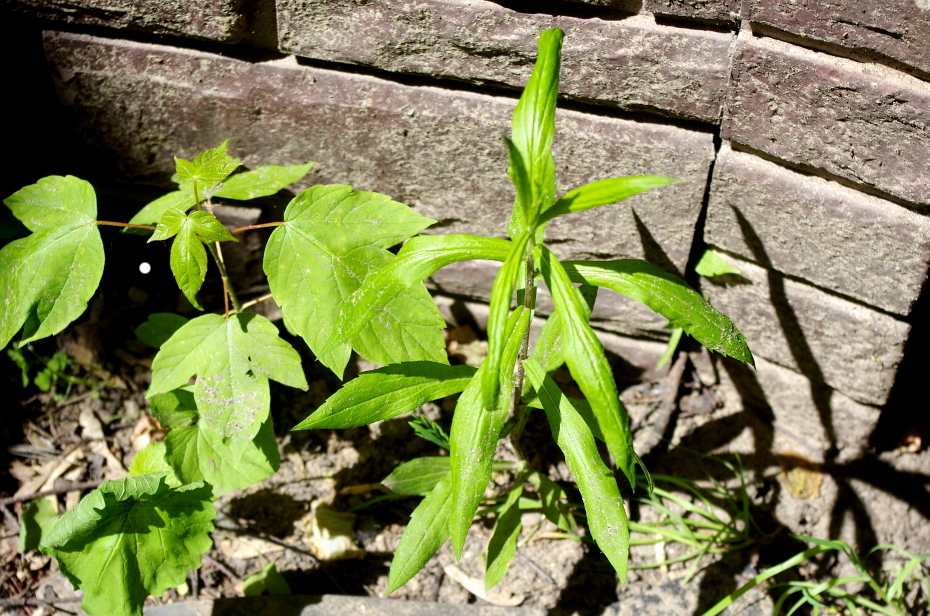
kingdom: Plantae
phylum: Tracheophyta
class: Magnoliopsida
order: Sapindales
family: Sapindaceae
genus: Acer
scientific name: Acer negundo
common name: Ashleaf maple
